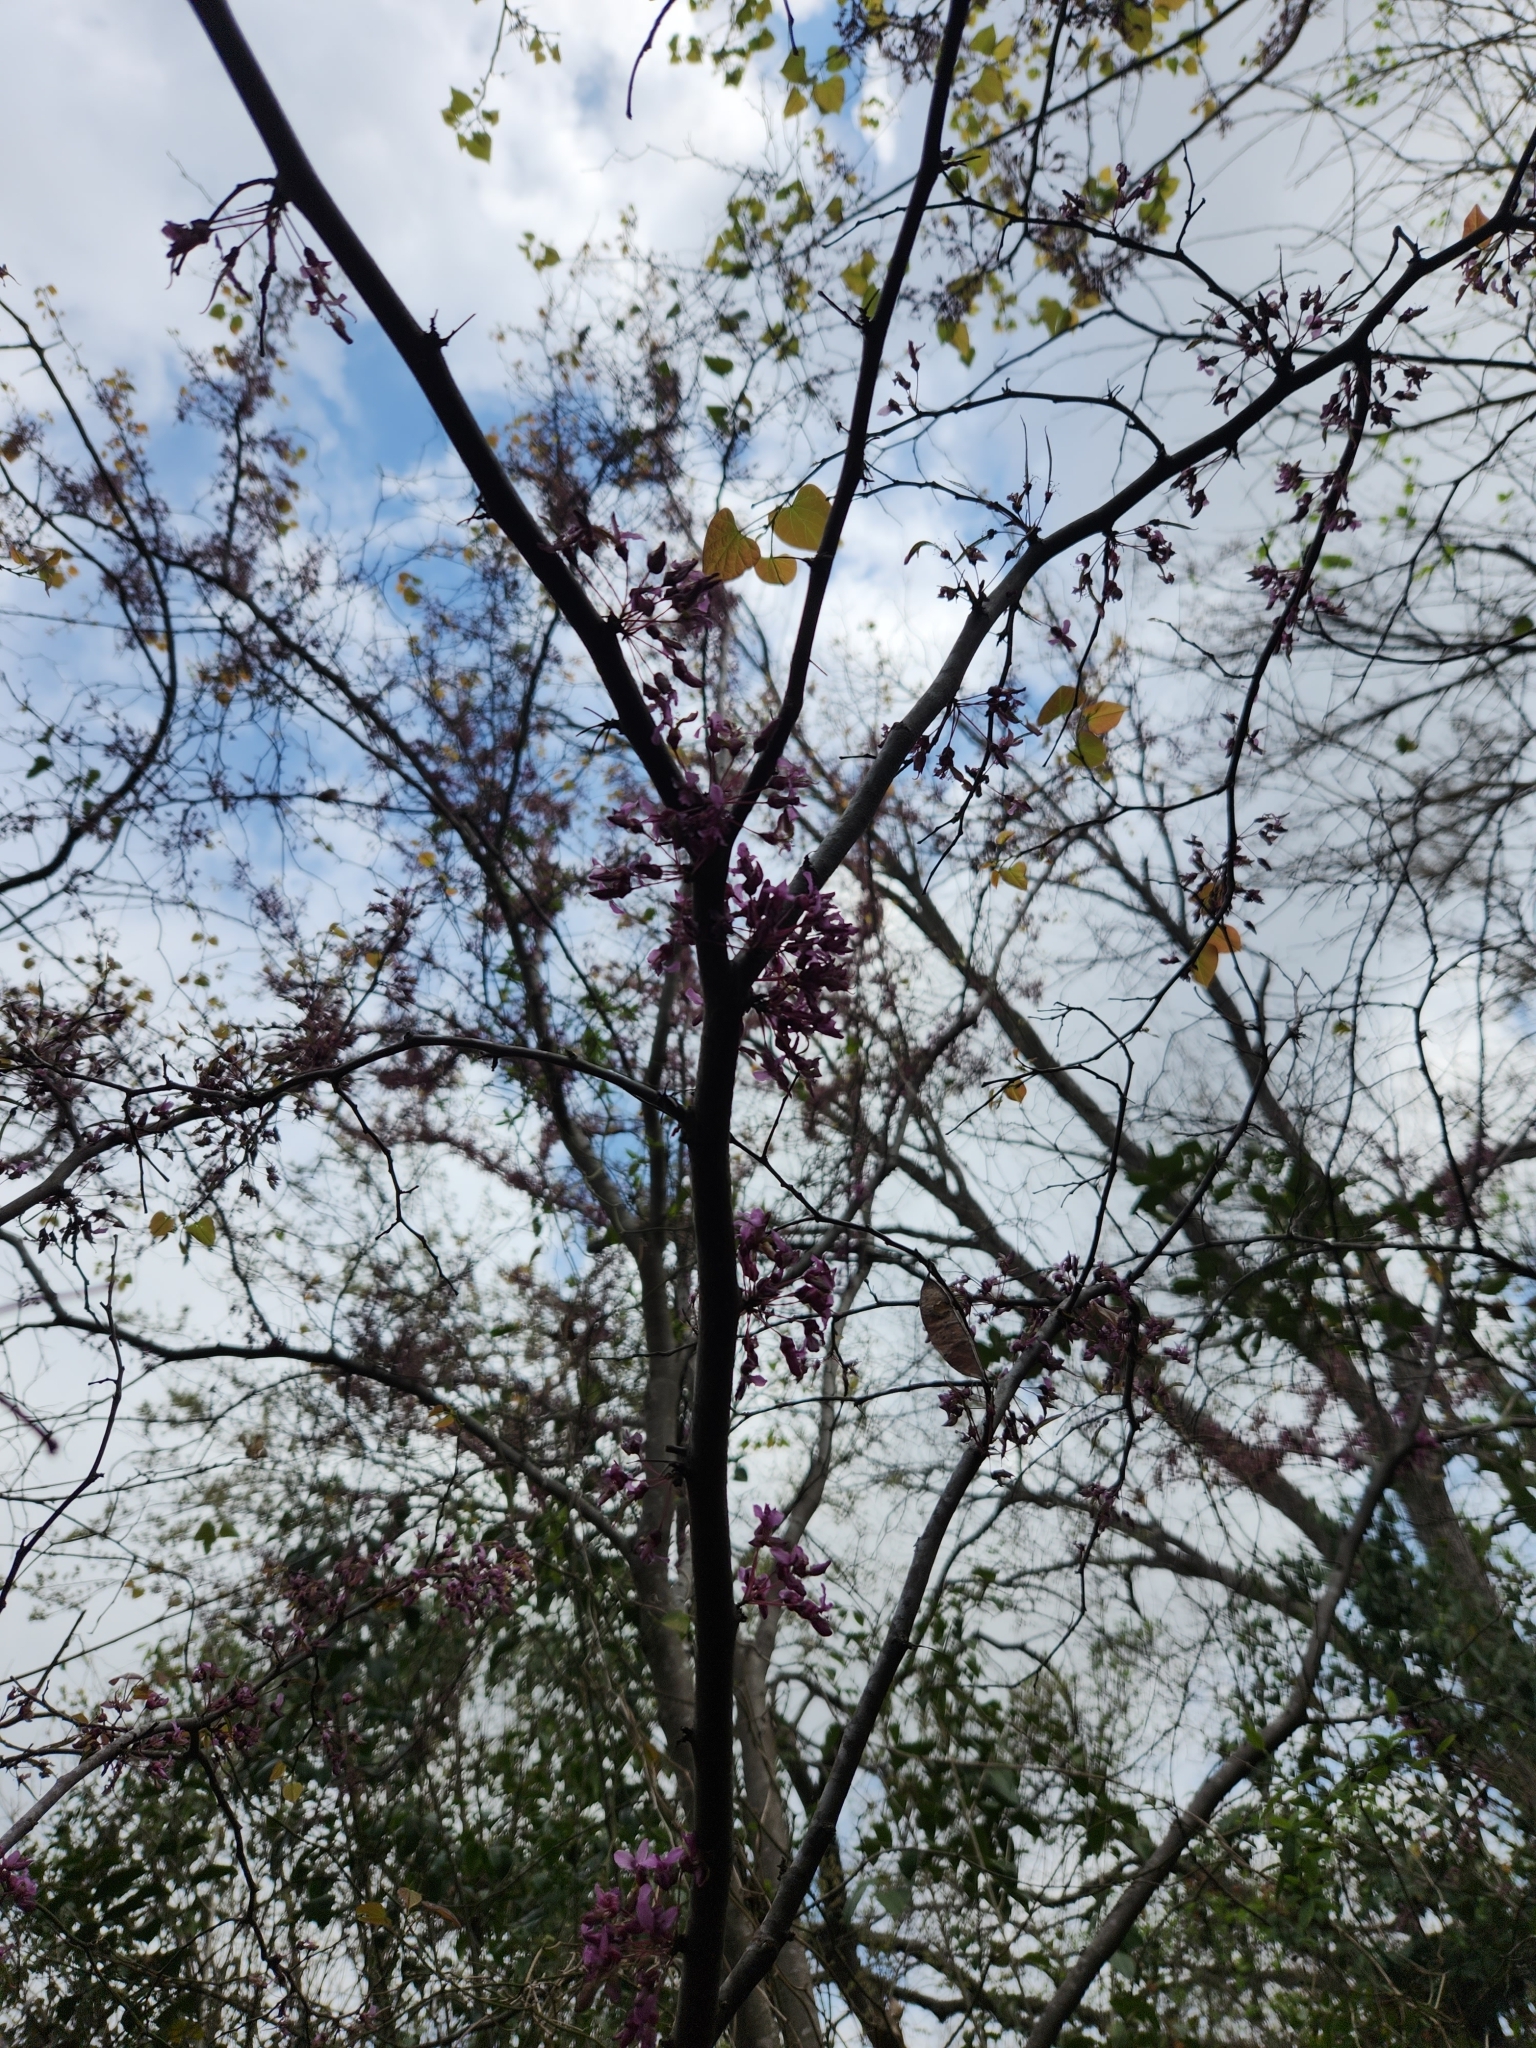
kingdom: Plantae
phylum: Tracheophyta
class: Magnoliopsida
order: Fabales
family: Fabaceae
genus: Cercis
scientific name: Cercis canadensis
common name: Eastern redbud
